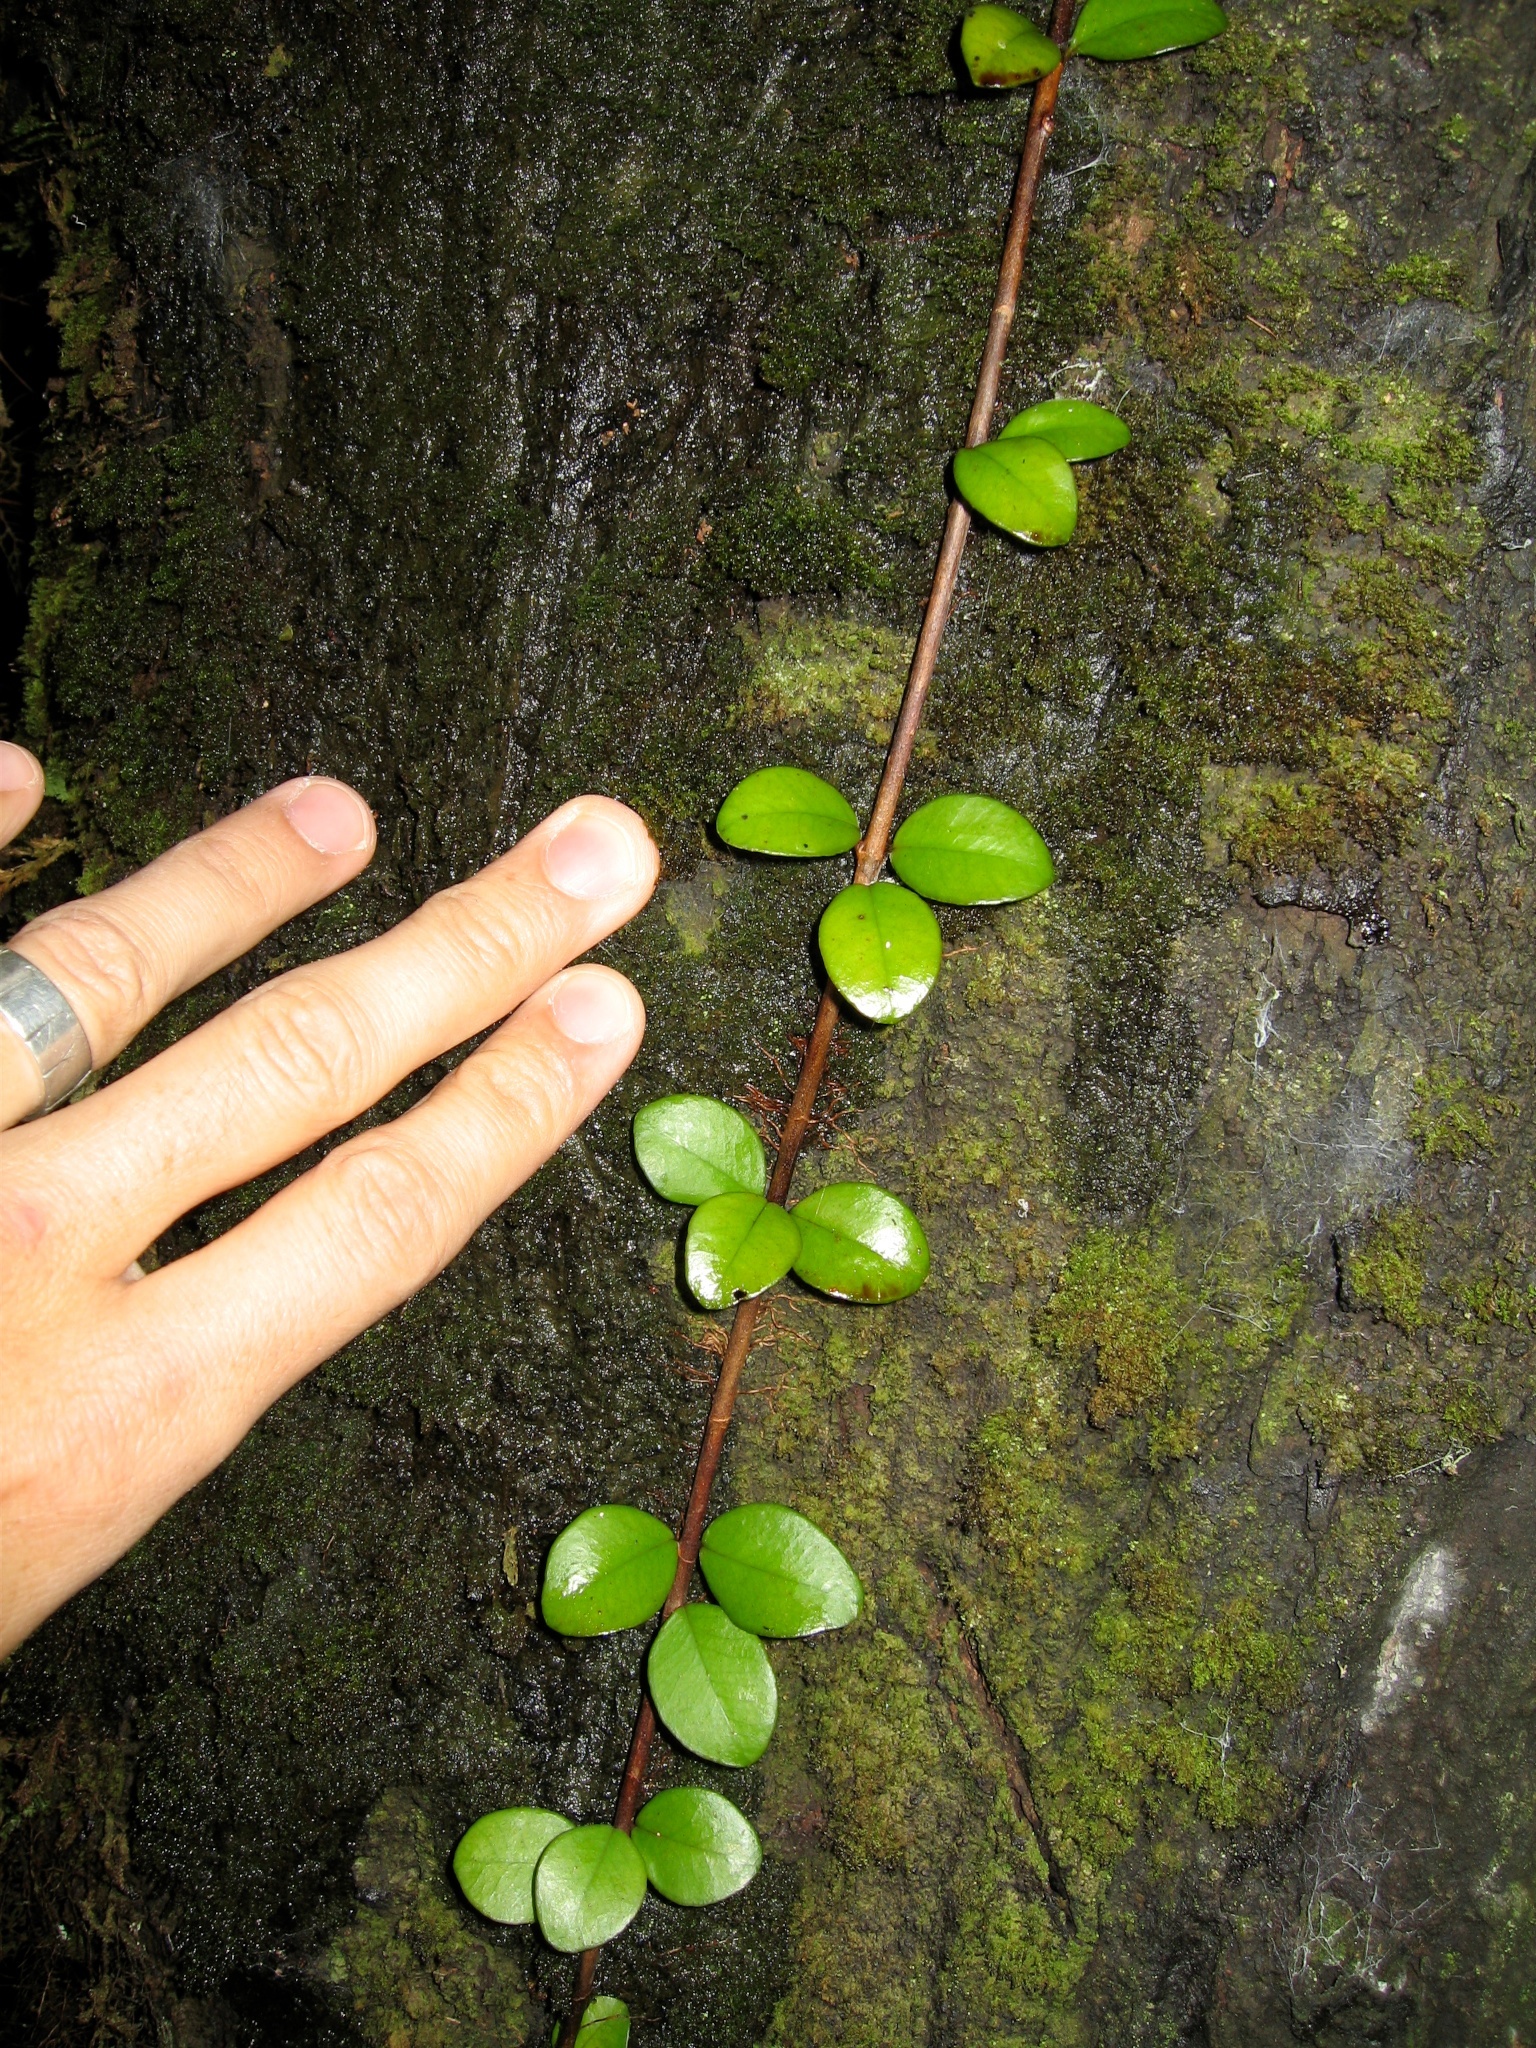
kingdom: Plantae
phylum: Tracheophyta
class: Magnoliopsida
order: Myrtales
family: Myrtaceae
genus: Metrosideros
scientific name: Metrosideros diffusa
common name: Small ratavine
